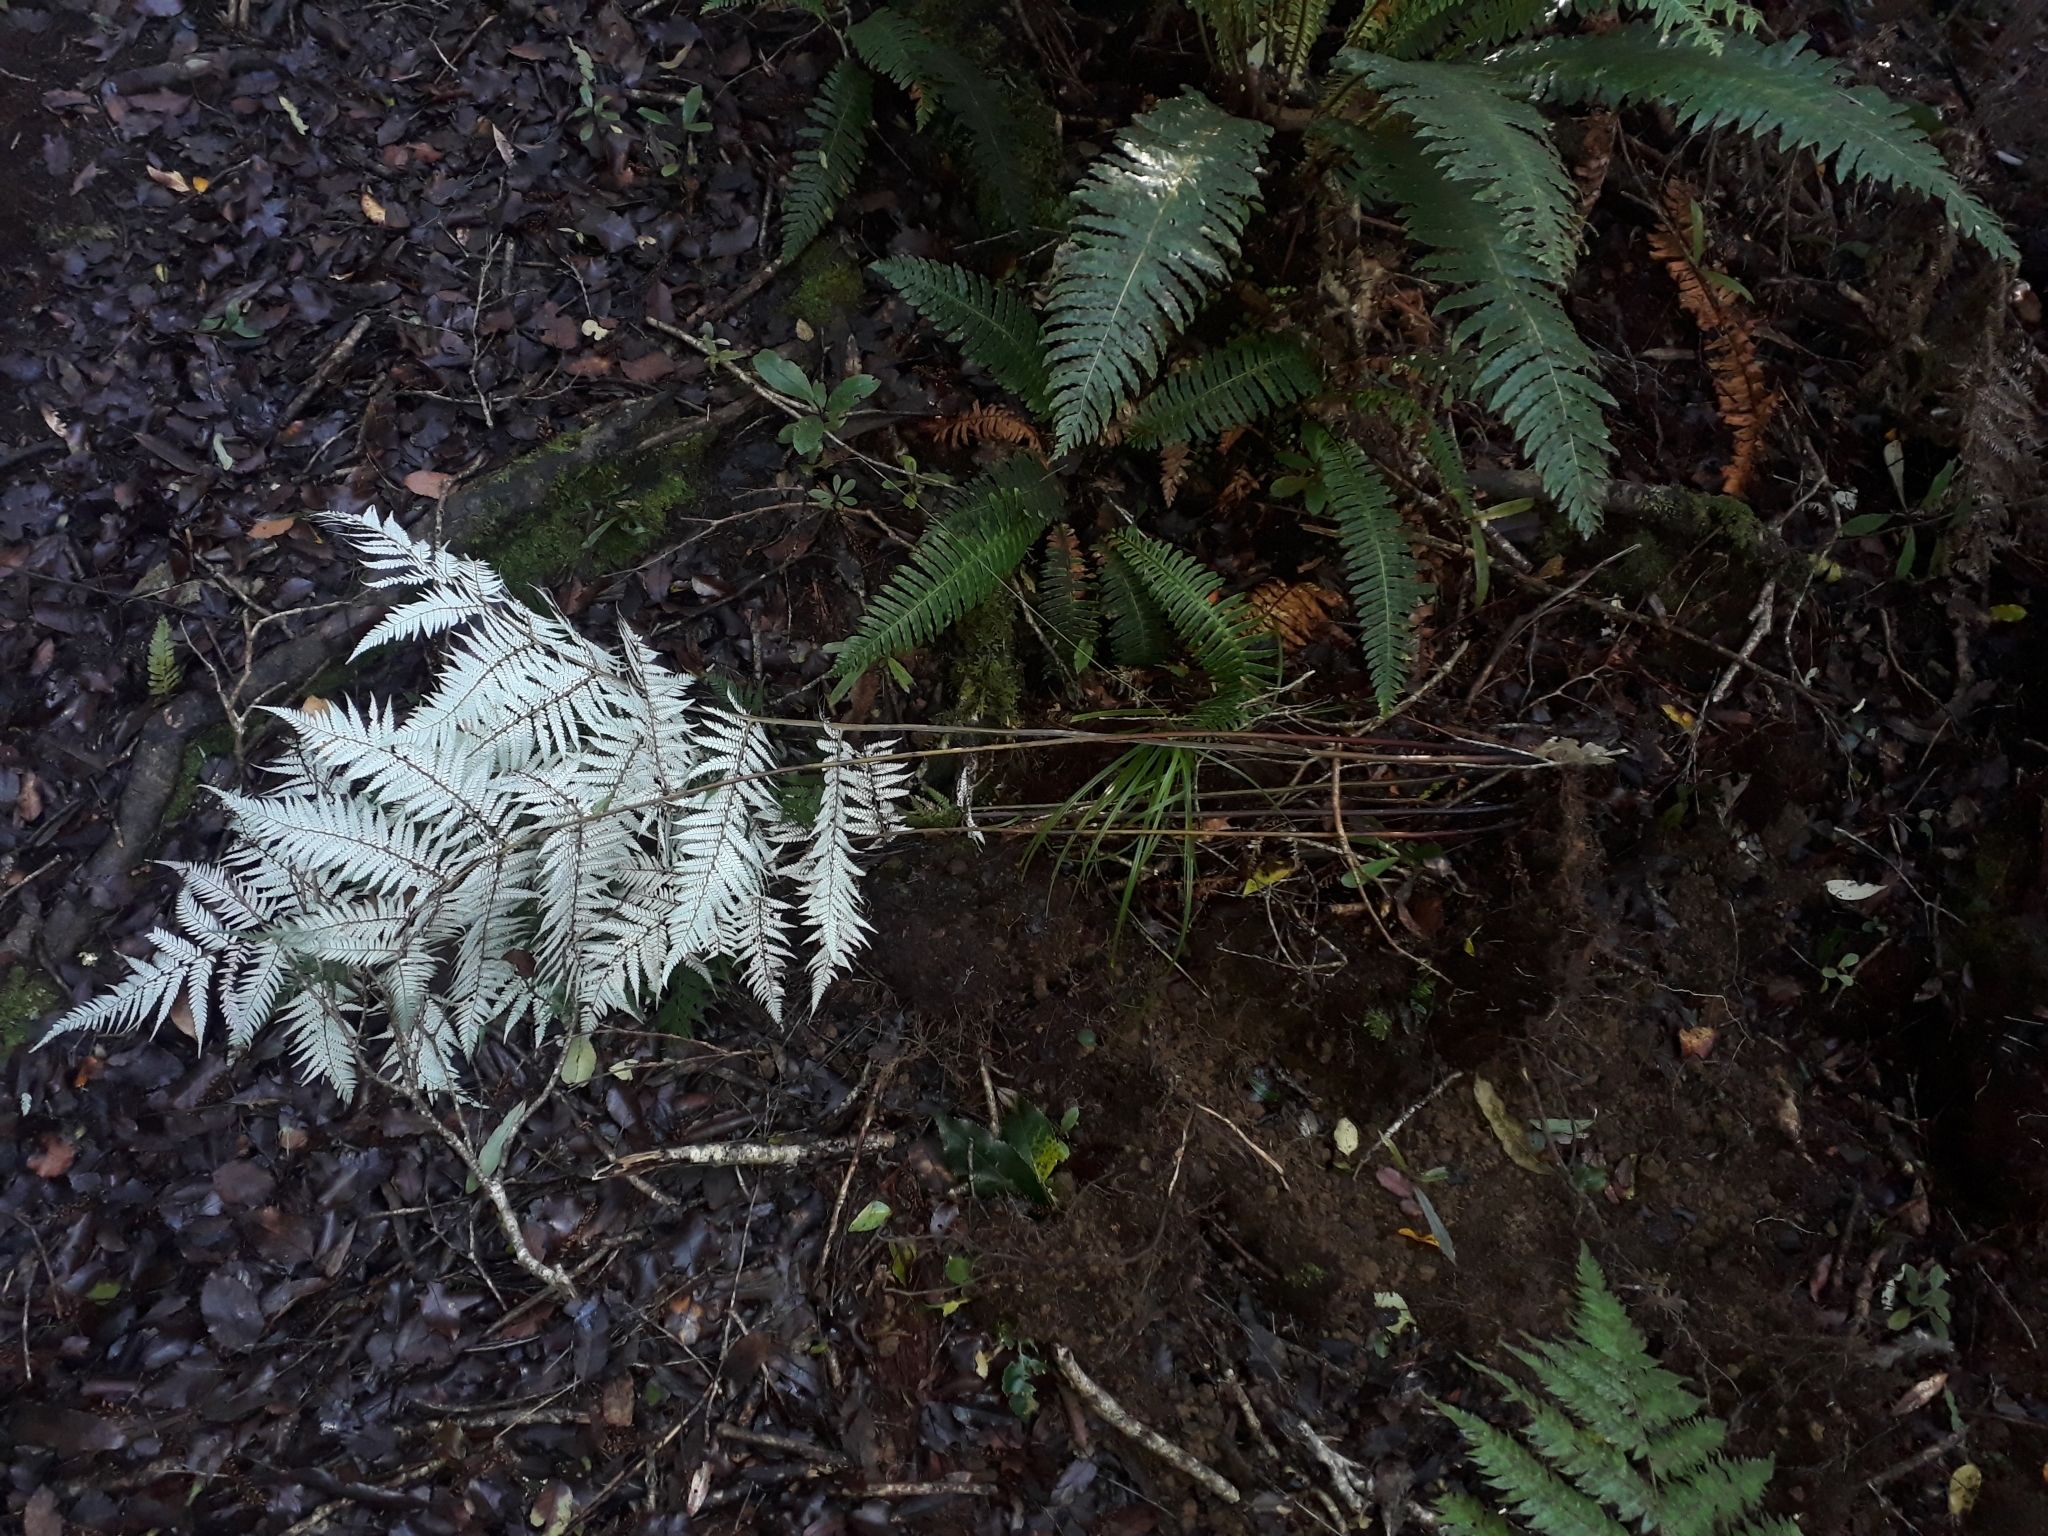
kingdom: Plantae
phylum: Tracheophyta
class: Polypodiopsida
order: Cyatheales
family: Cyatheaceae
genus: Alsophila
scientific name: Alsophila dealbata
